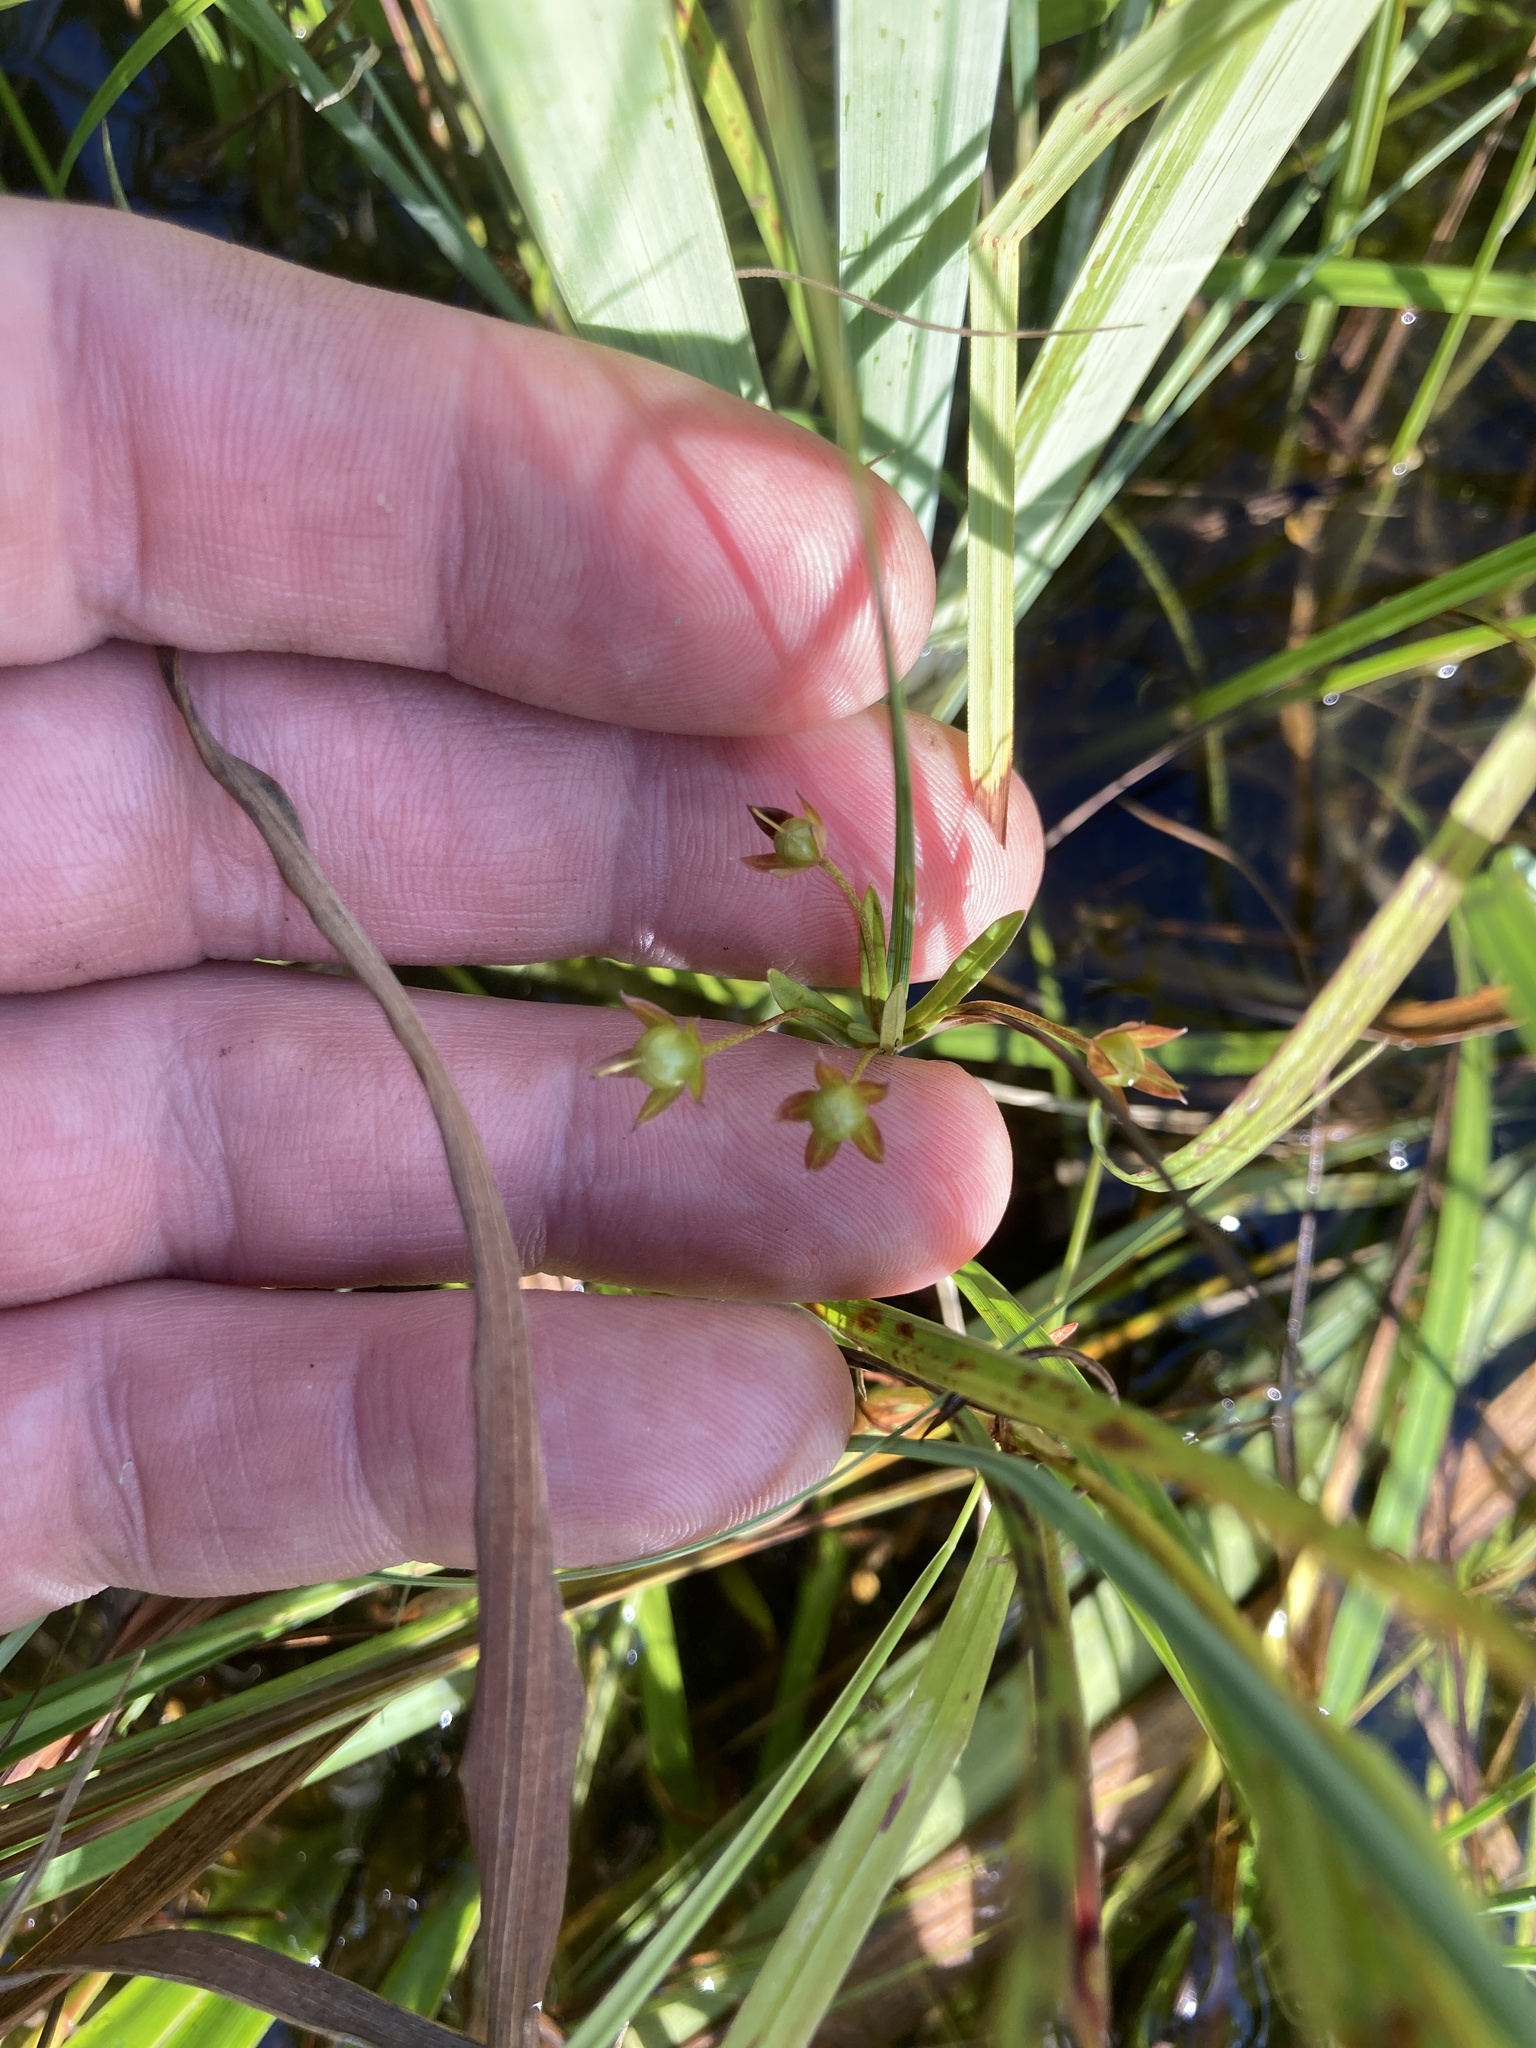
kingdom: Plantae
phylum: Tracheophyta
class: Magnoliopsida
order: Ericales
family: Primulaceae
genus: Lysimachia
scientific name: Lysimachia quadriflora
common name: Four-flowered loosestrife
